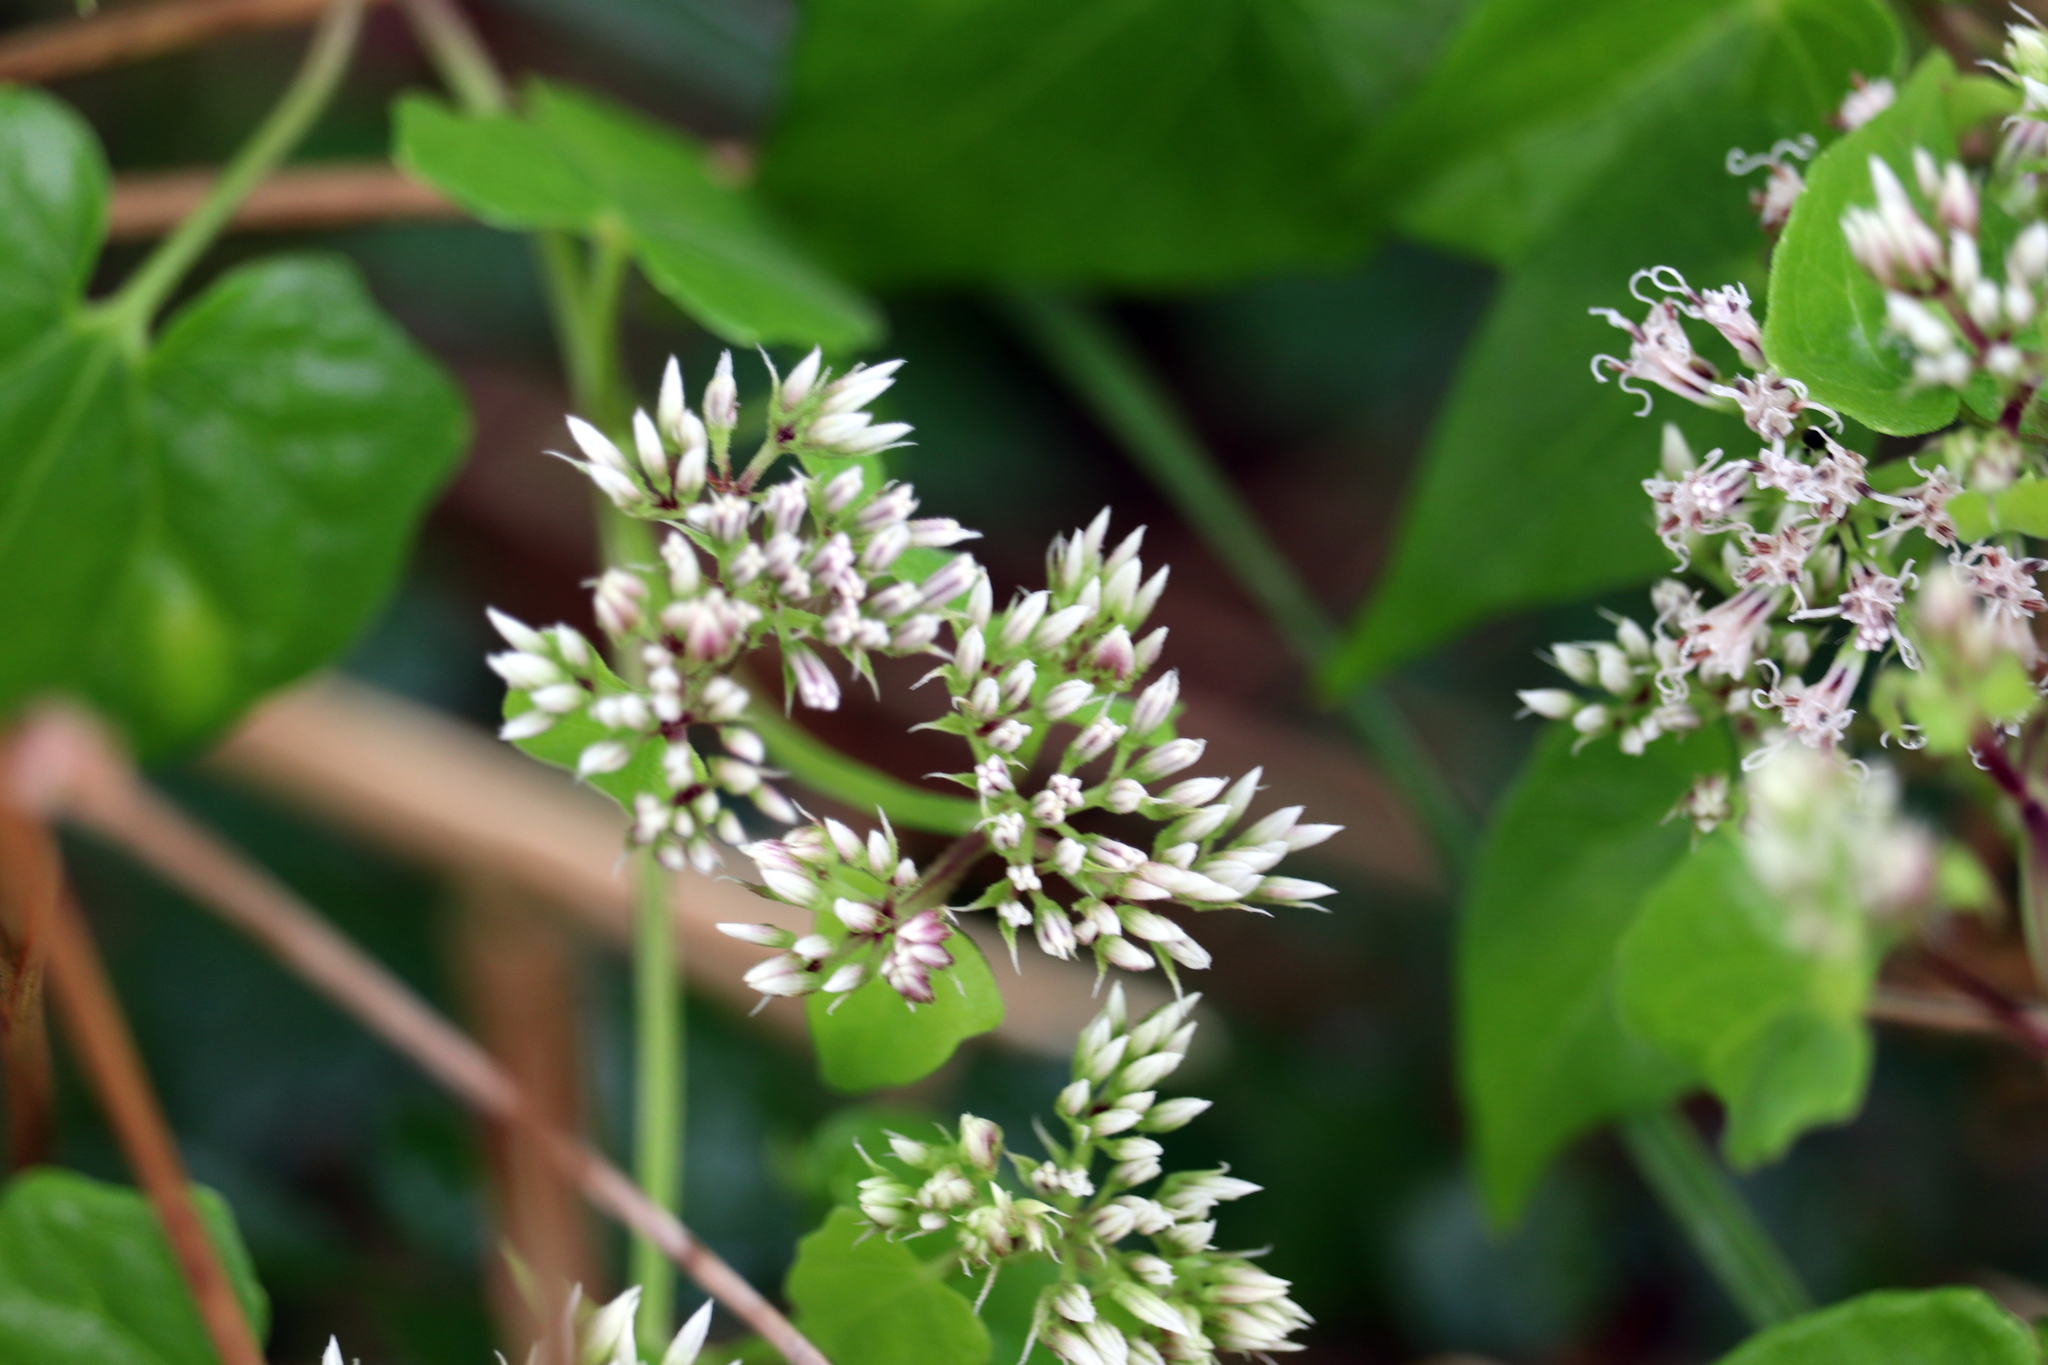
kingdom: Plantae
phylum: Tracheophyta
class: Magnoliopsida
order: Asterales
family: Asteraceae
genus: Mikania
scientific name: Mikania scandens
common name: Climbing hempvine
